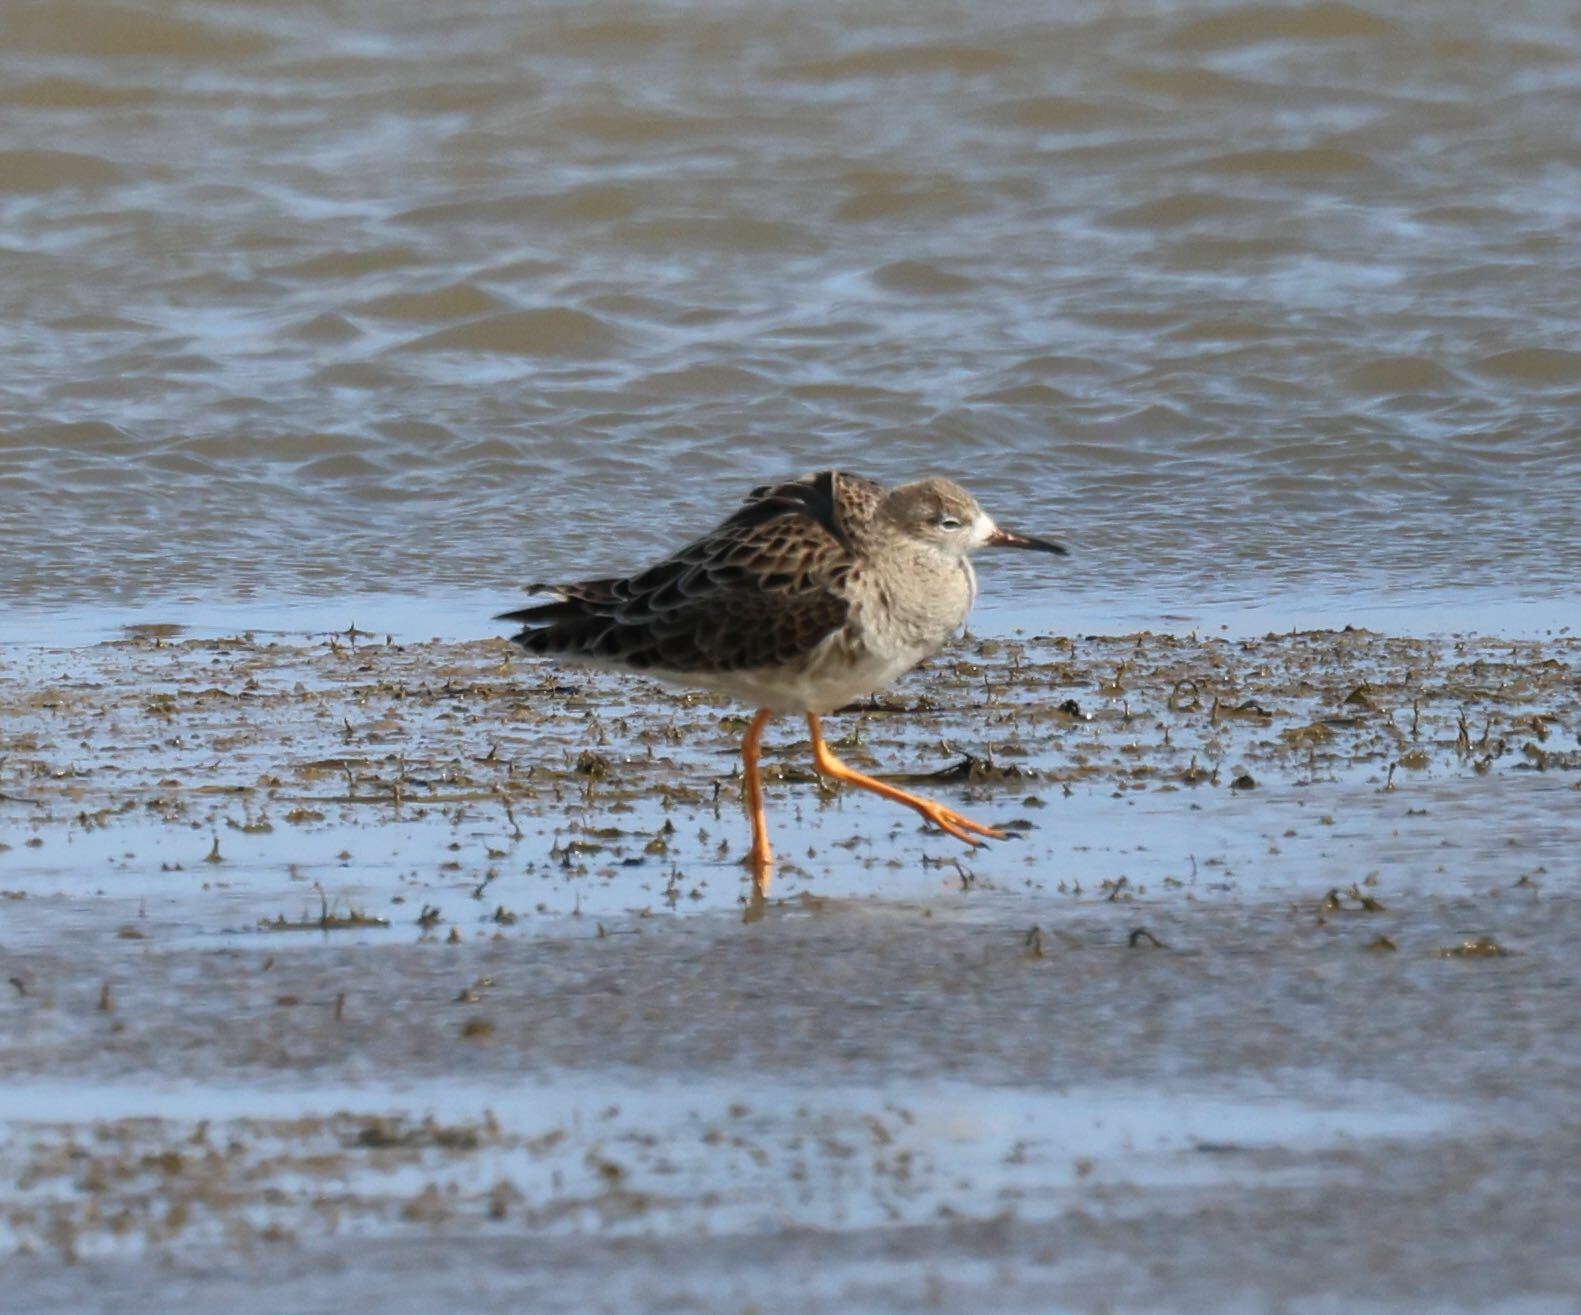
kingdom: Animalia
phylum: Chordata
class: Aves
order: Charadriiformes
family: Scolopacidae
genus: Calidris
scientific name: Calidris pugnax
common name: Ruff
